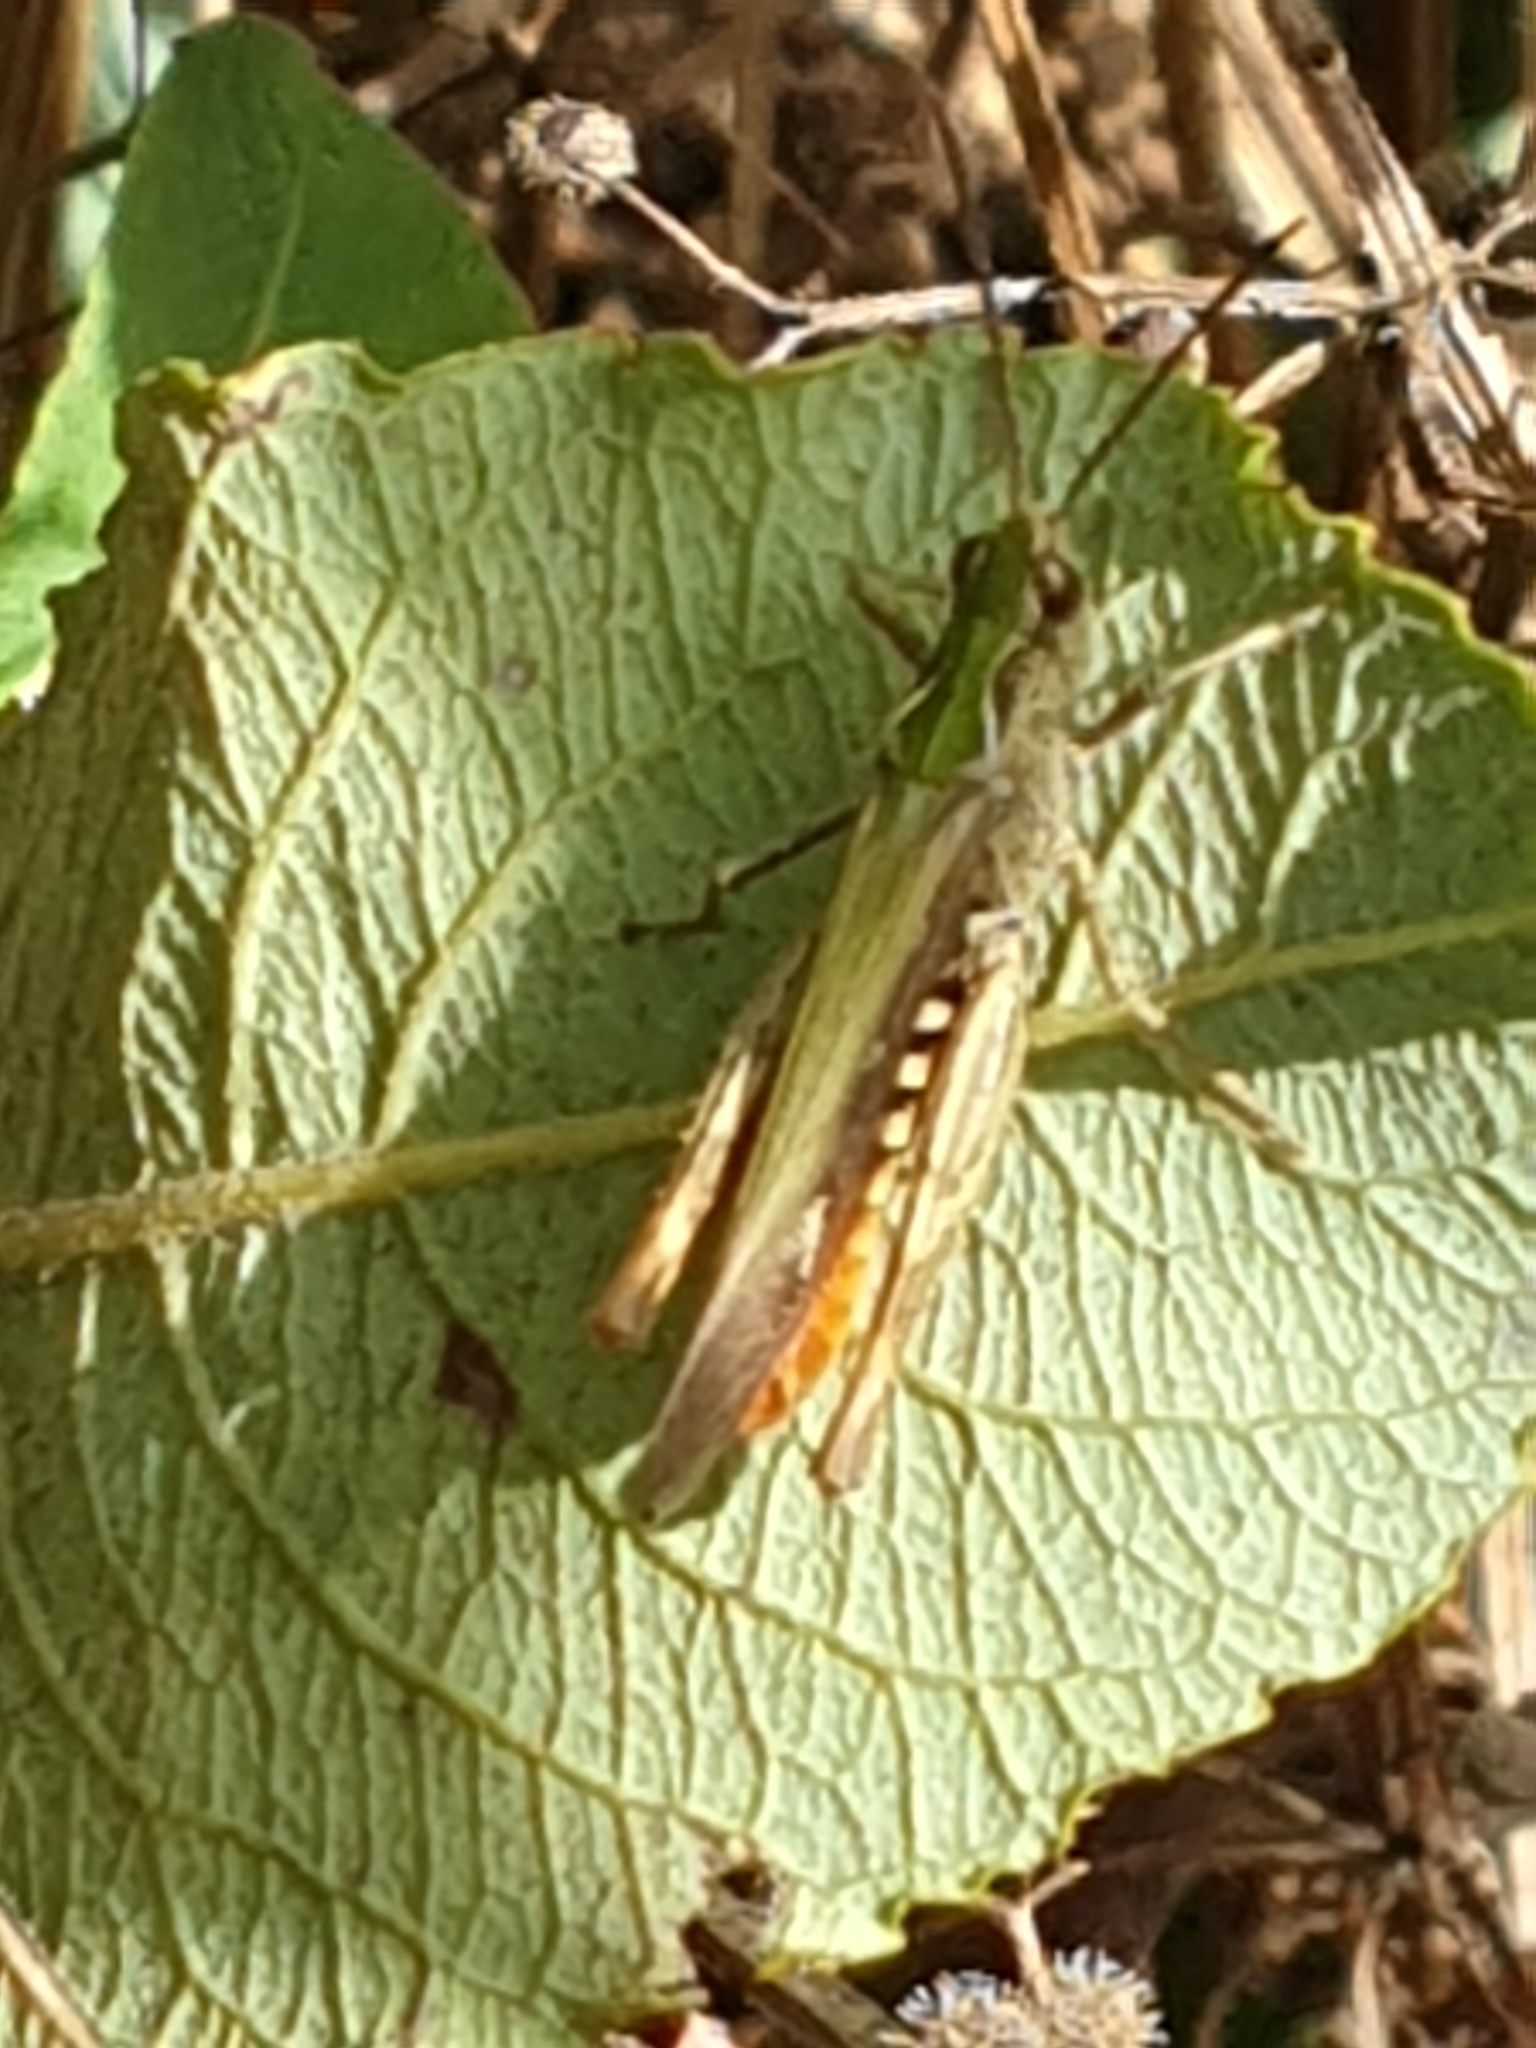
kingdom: Animalia
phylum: Arthropoda
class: Insecta
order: Orthoptera
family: Acrididae
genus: Chorthippus
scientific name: Chorthippus brunneus
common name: Field grasshopper
